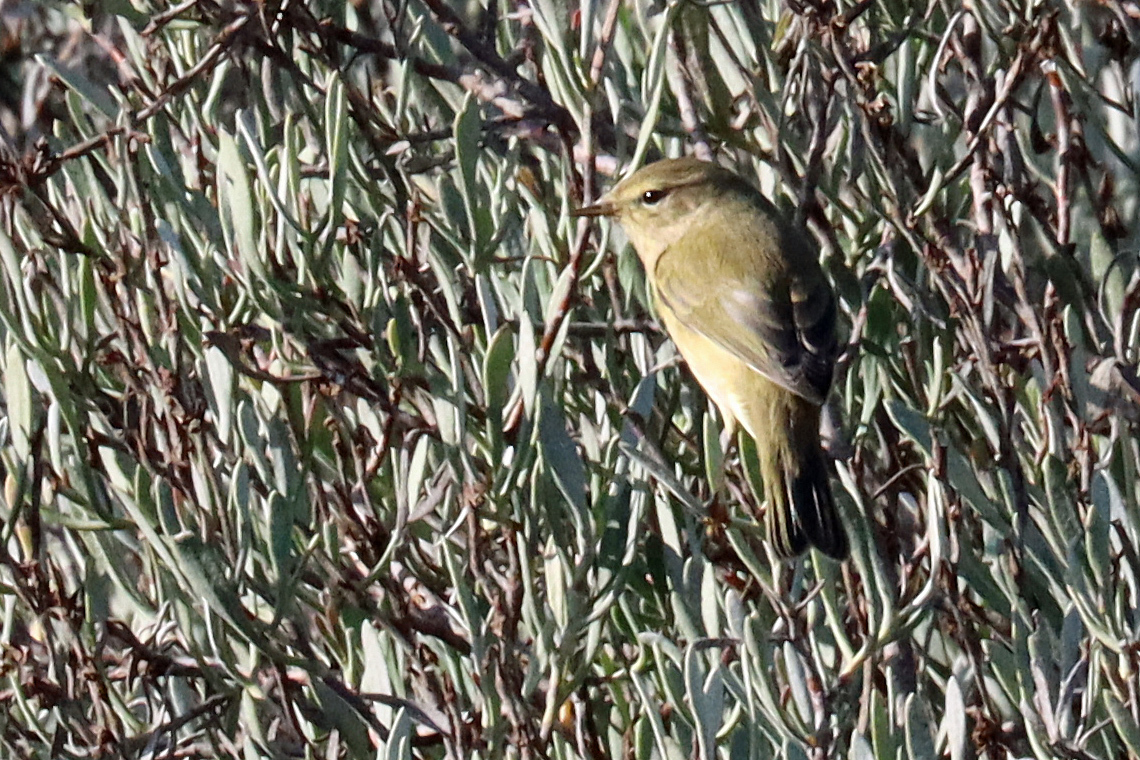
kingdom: Animalia
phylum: Chordata
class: Aves
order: Passeriformes
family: Phylloscopidae
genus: Phylloscopus
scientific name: Phylloscopus collybita
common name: Common chiffchaff
